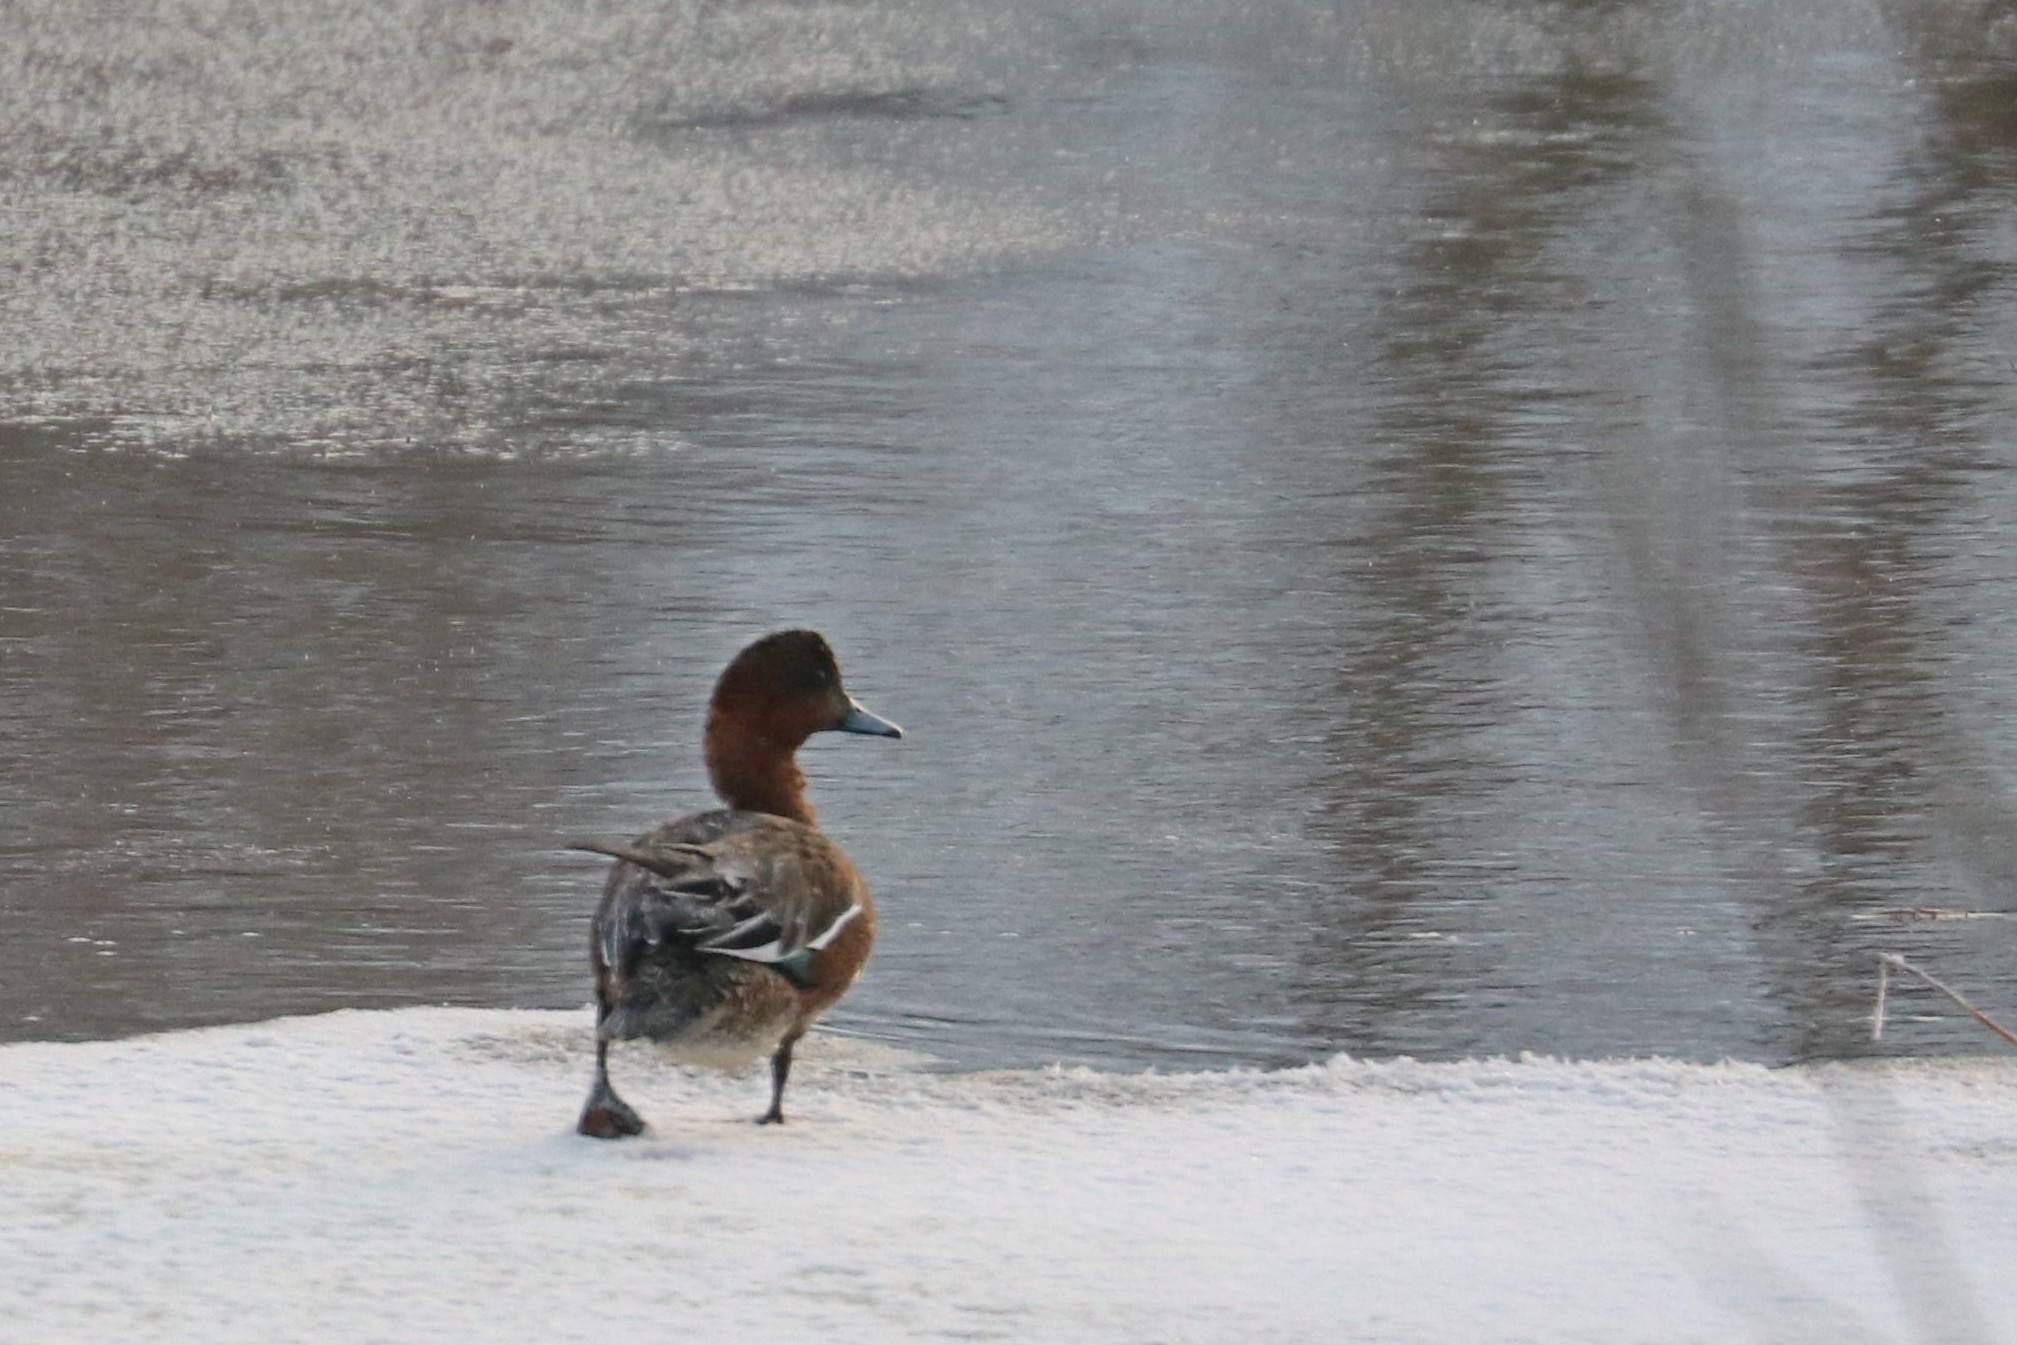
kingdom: Animalia
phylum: Chordata
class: Aves
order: Anseriformes
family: Anatidae
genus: Mareca
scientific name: Mareca penelope
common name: Eurasian wigeon
